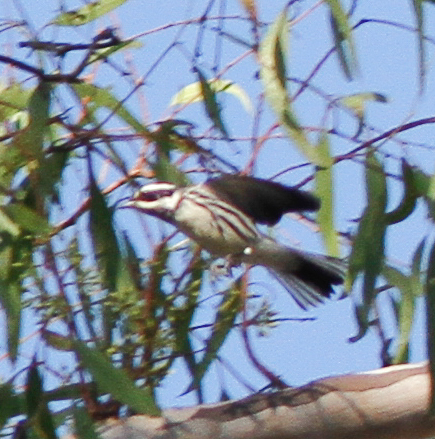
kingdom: Animalia
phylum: Chordata
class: Aves
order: Passeriformes
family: Parulidae
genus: Setophaga
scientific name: Setophaga nigrescens
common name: Black-throated gray warbler
